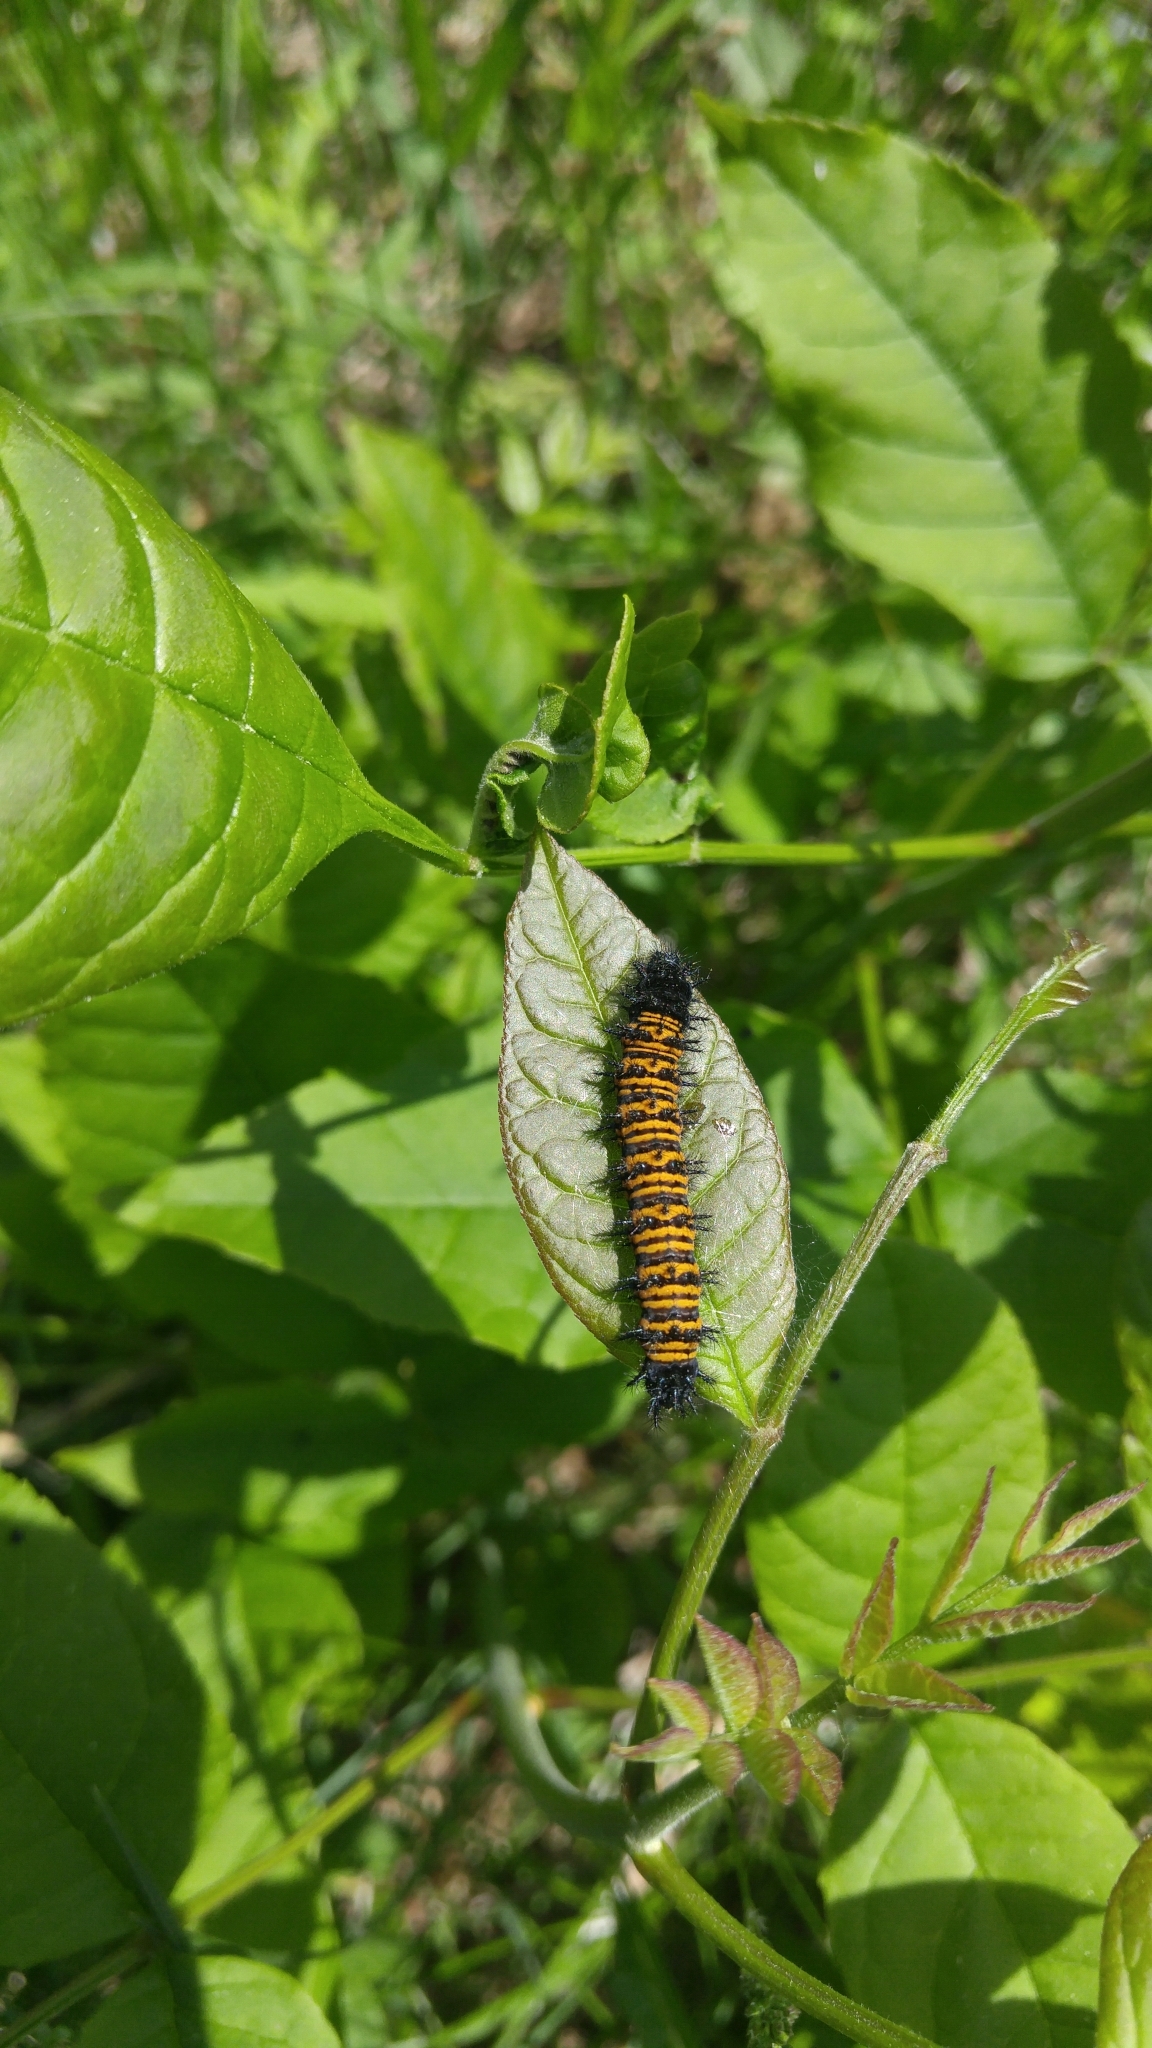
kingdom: Animalia
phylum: Arthropoda
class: Insecta
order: Lepidoptera
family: Nymphalidae
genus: Euphydryas
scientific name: Euphydryas phaeton
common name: Baltimore checkerspot
